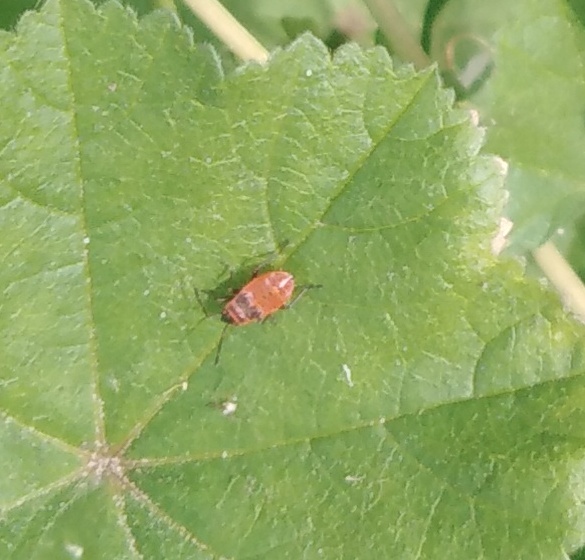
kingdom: Animalia
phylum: Arthropoda
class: Insecta
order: Hemiptera
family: Pyrrhocoridae
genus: Pyrrhocoris
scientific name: Pyrrhocoris apterus
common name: Firebug
